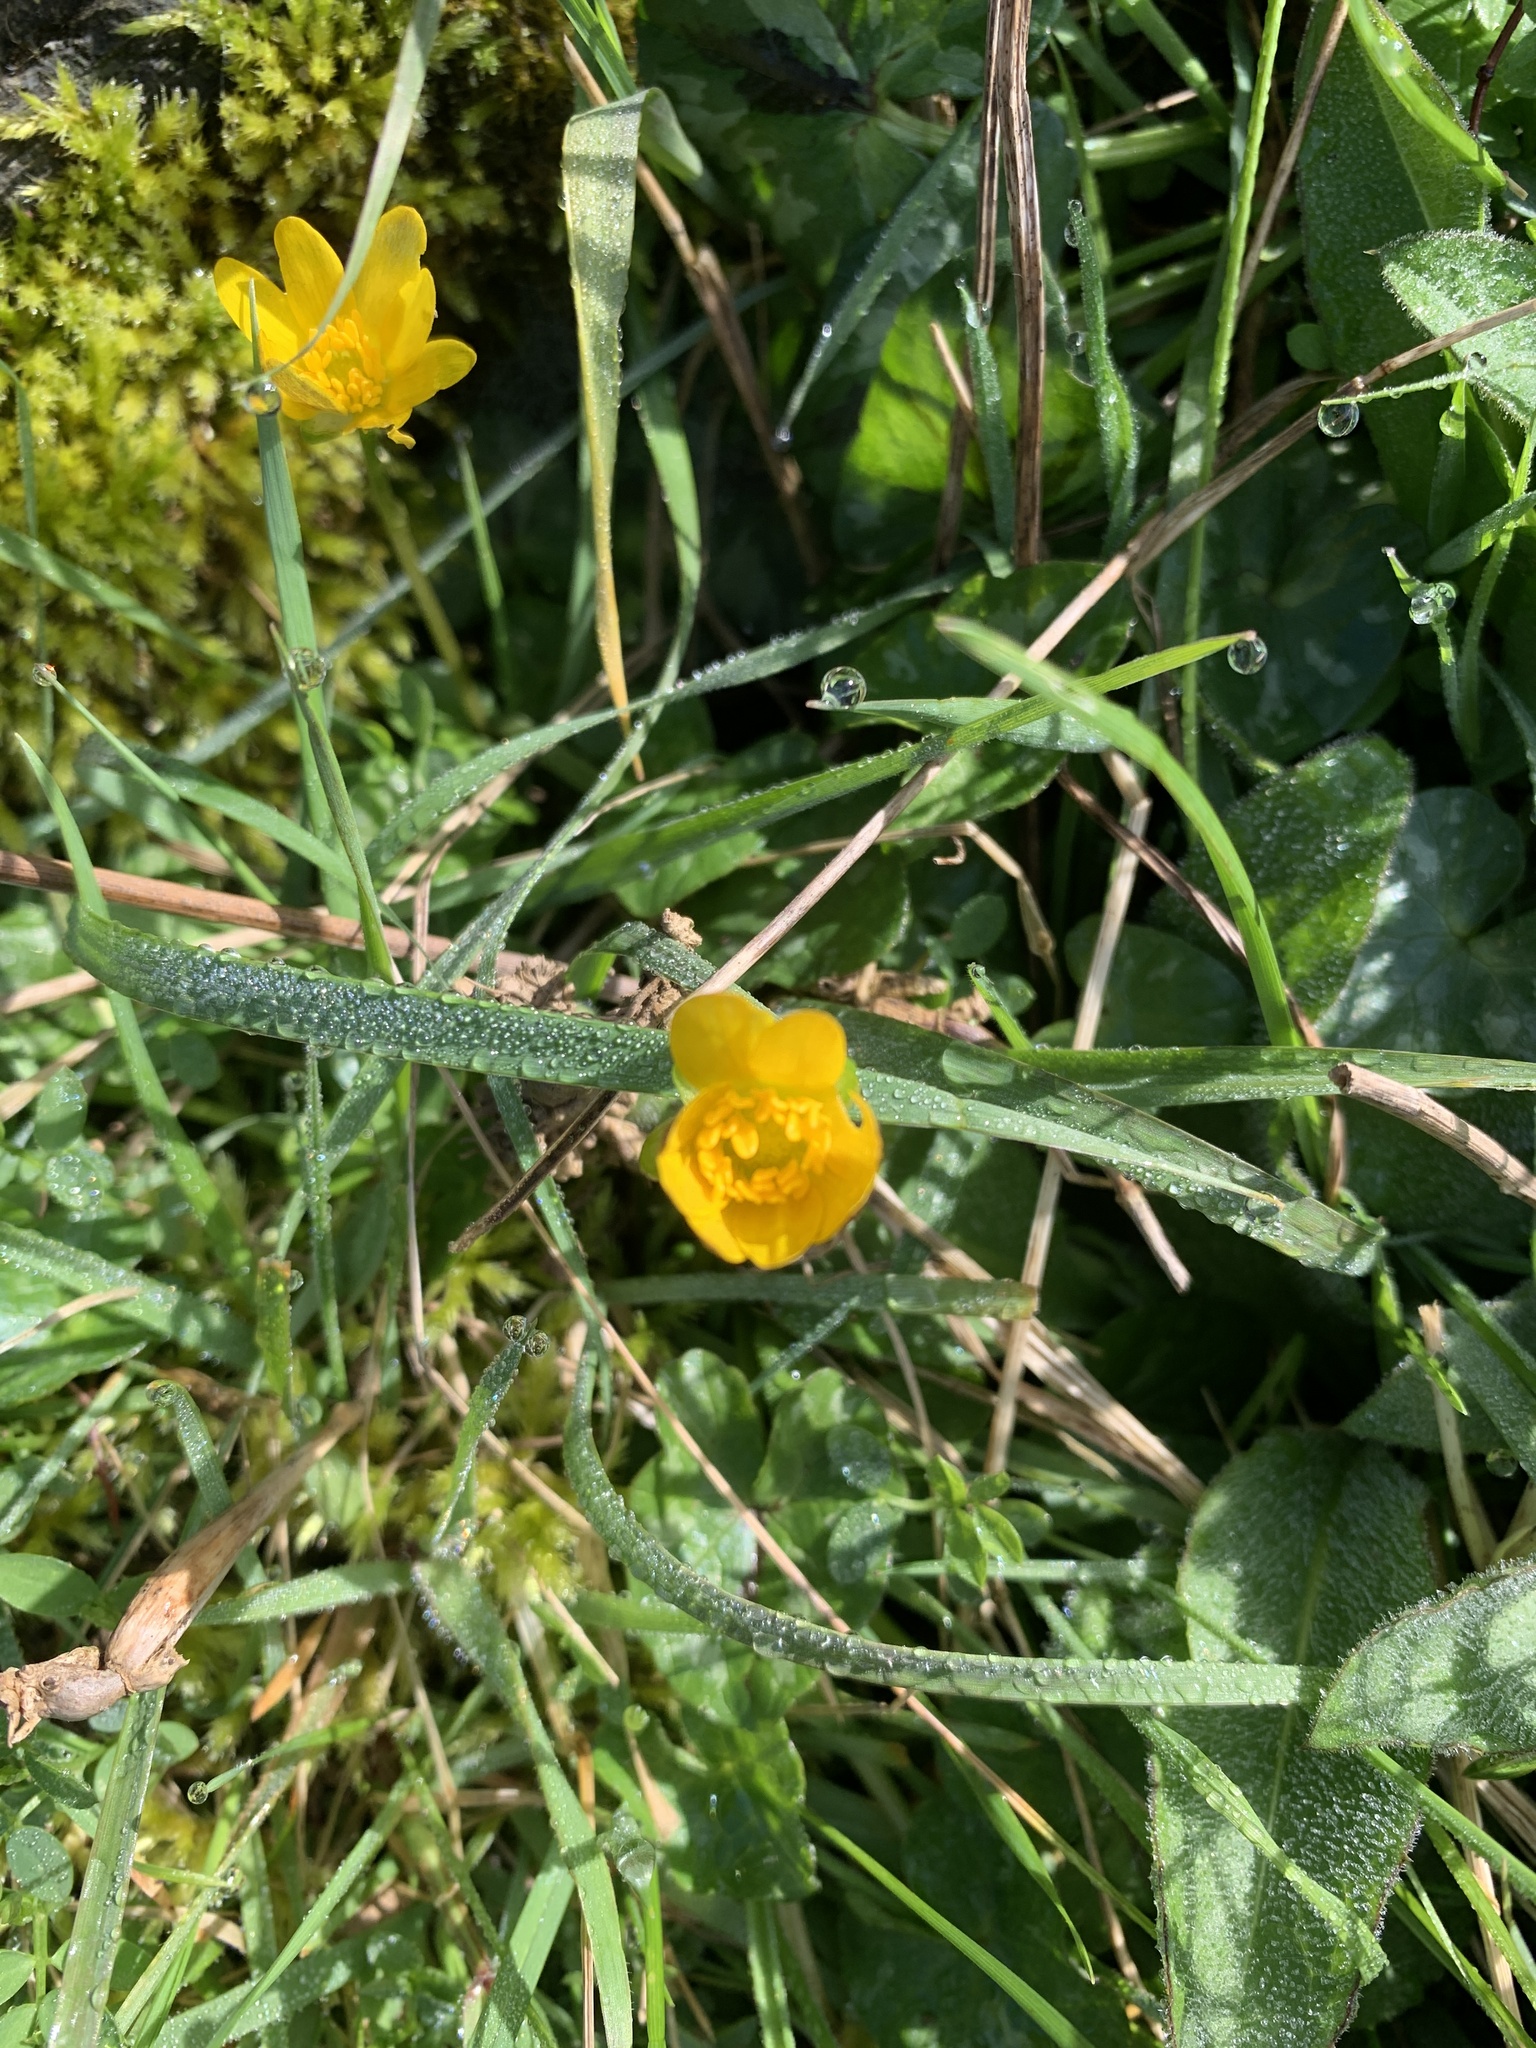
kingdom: Plantae
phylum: Tracheophyta
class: Magnoliopsida
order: Ranunculales
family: Ranunculaceae
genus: Ficaria
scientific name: Ficaria verna
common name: Lesser celandine
